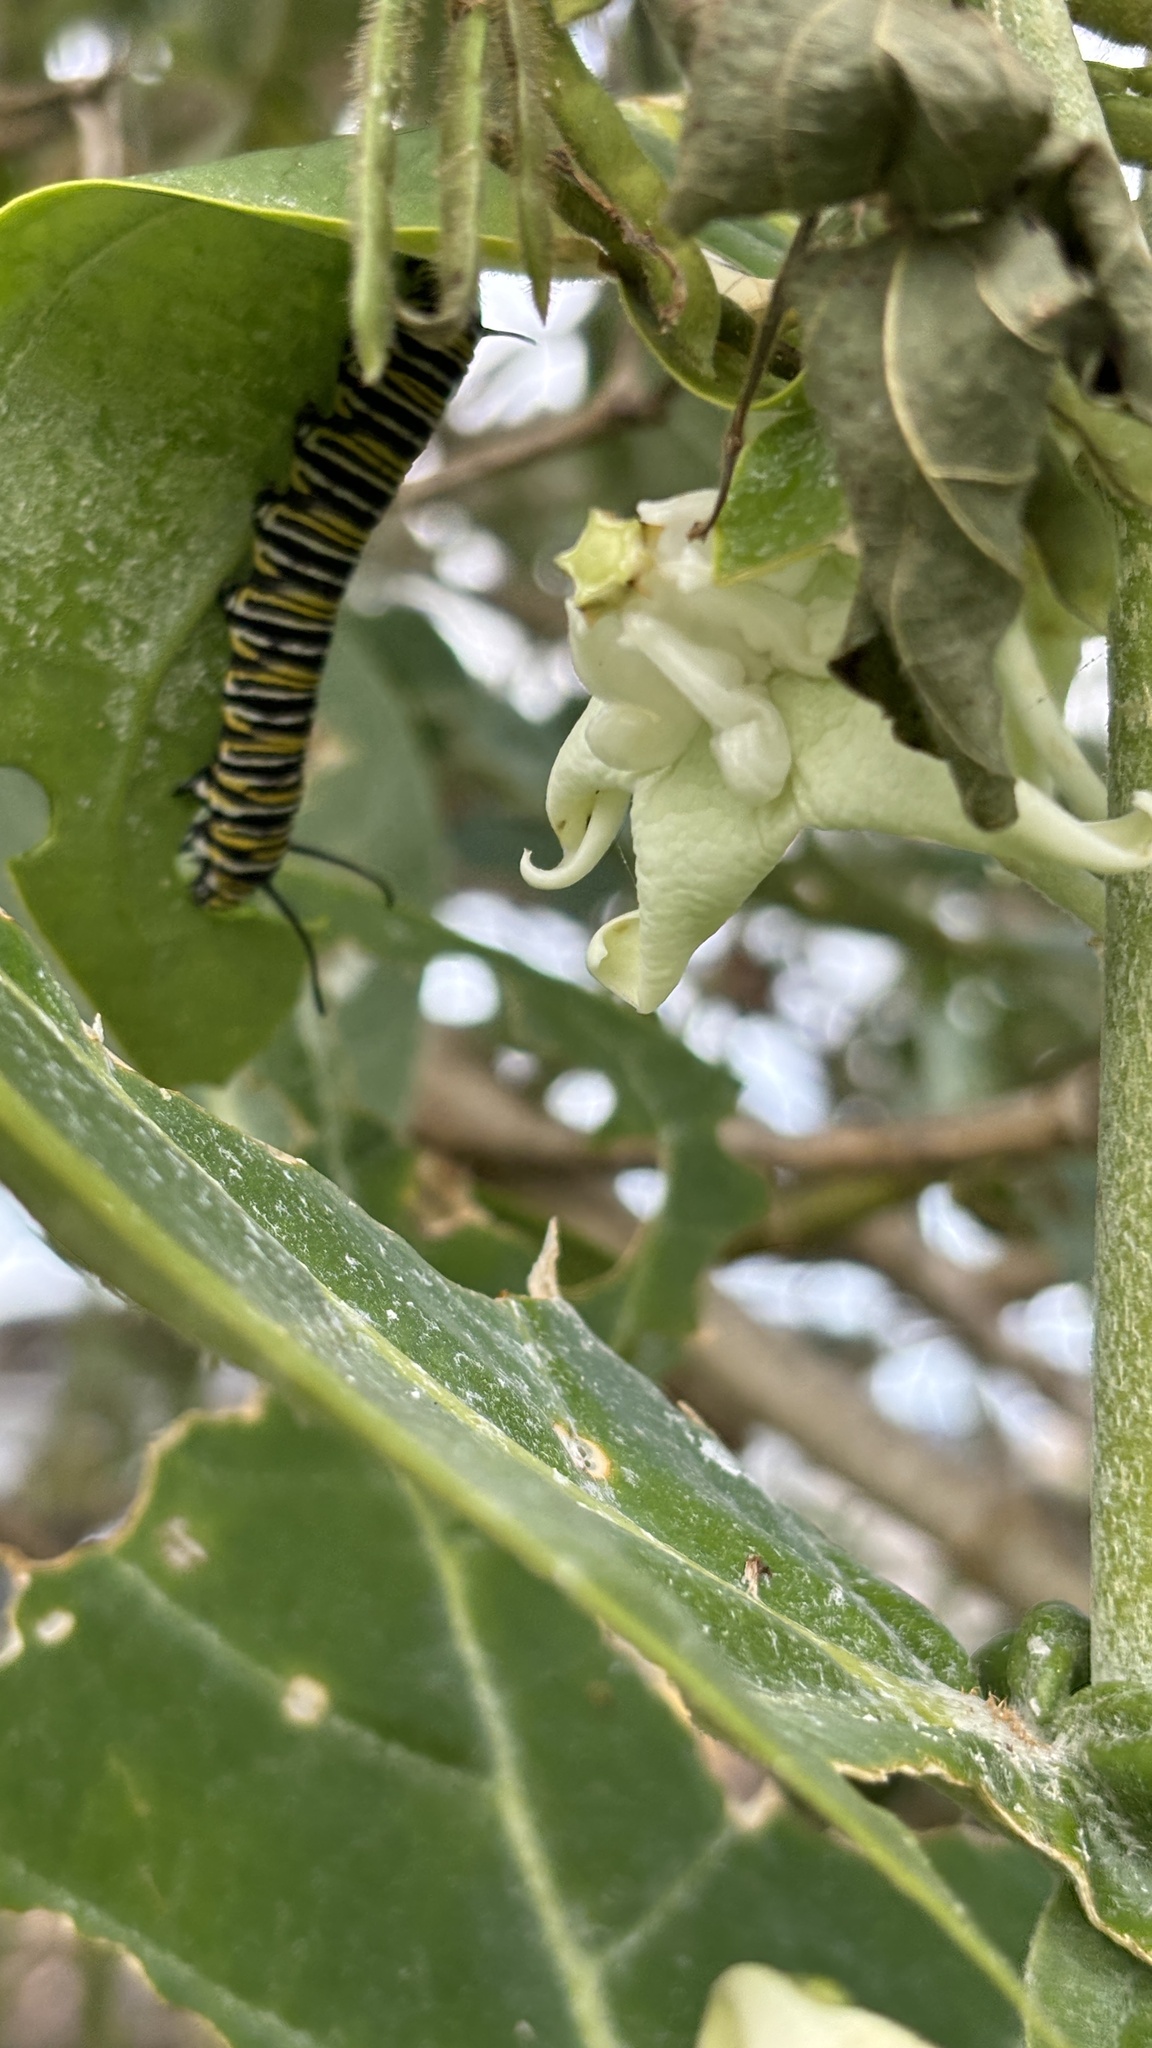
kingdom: Animalia
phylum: Arthropoda
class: Insecta
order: Lepidoptera
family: Nymphalidae
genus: Danaus
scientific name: Danaus plexippus
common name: Monarch
